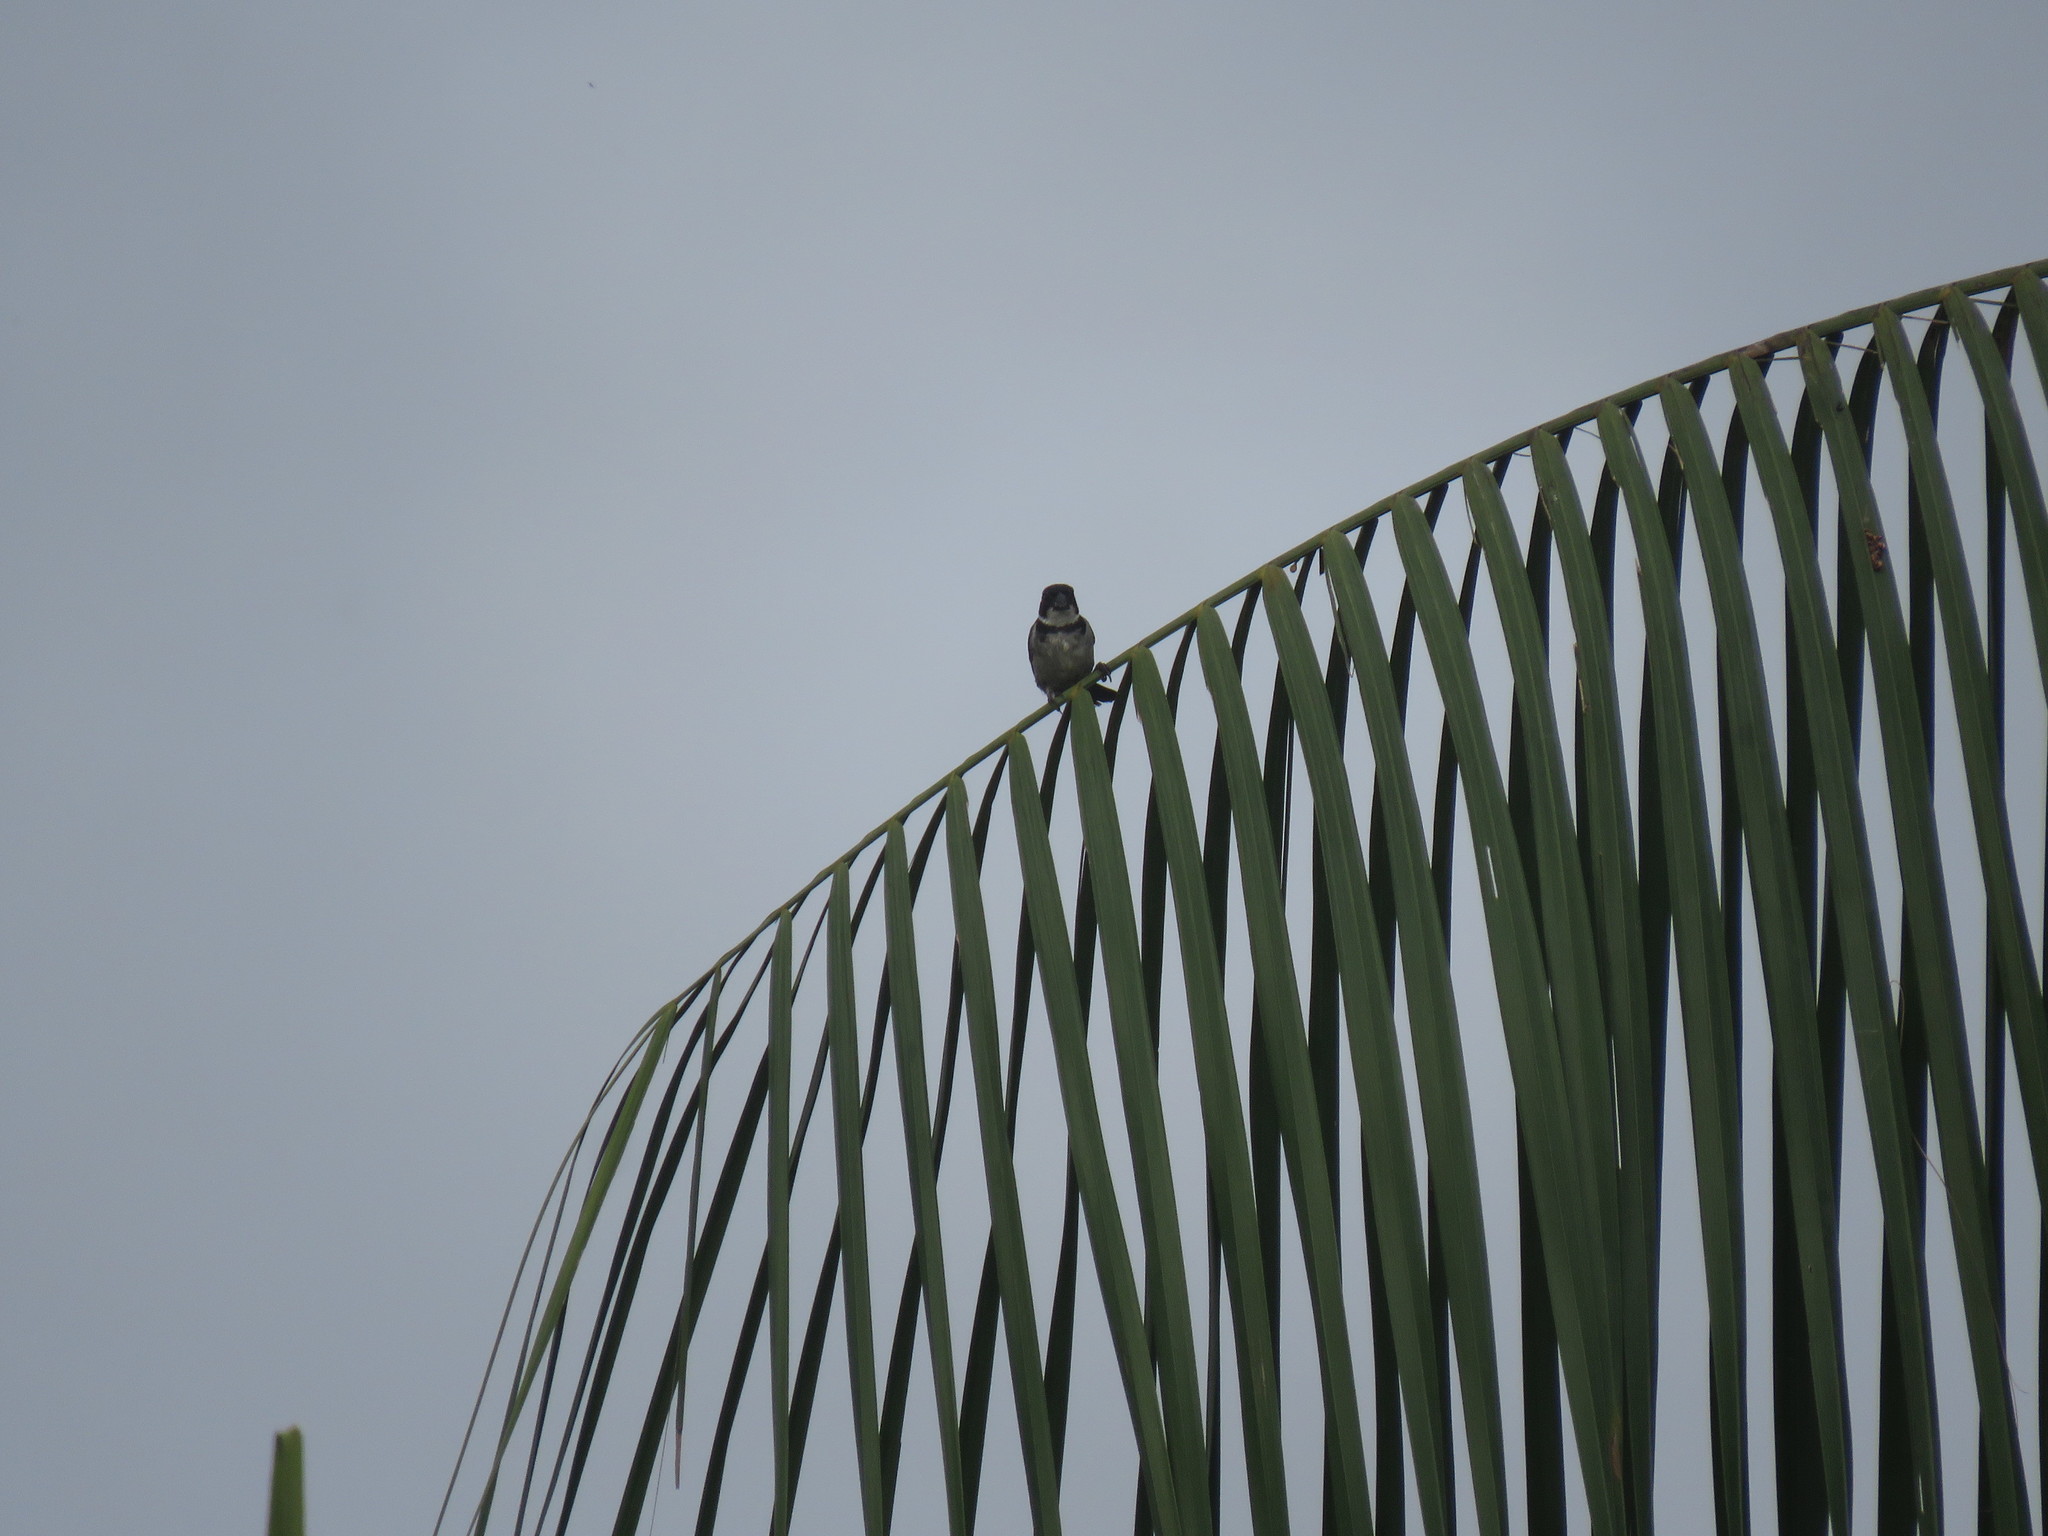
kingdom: Animalia
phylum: Chordata
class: Aves
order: Passeriformes
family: Thraupidae
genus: Sporophila
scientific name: Sporophila americana
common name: Wing-barred seedeater
